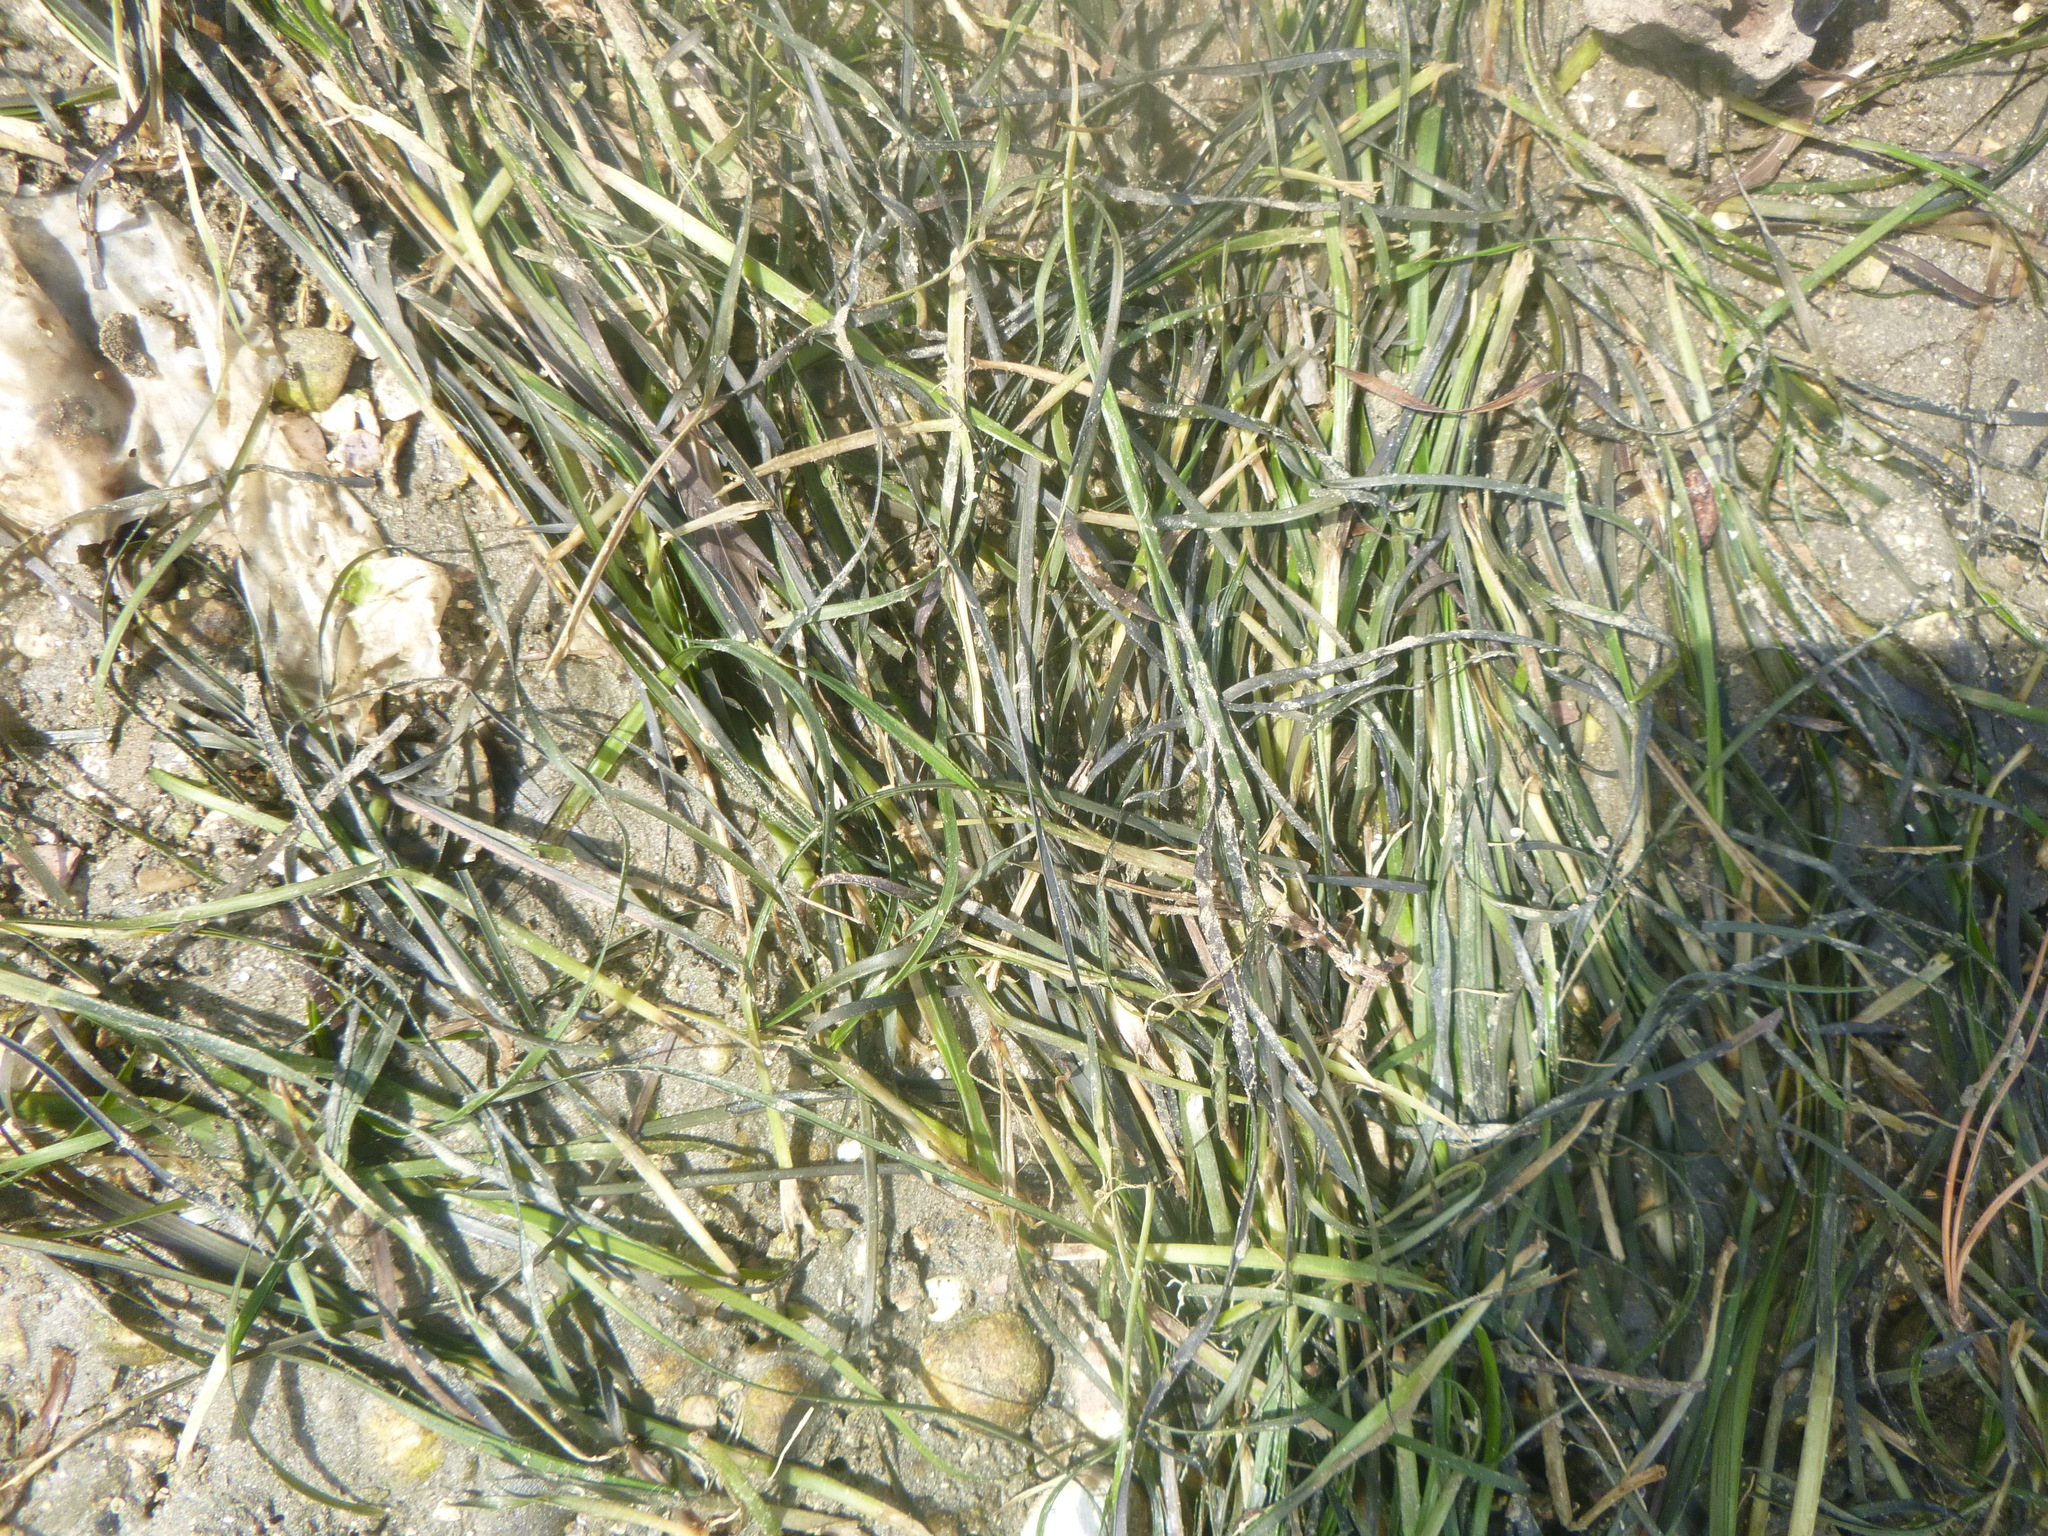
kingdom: Plantae
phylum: Tracheophyta
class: Liliopsida
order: Alismatales
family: Zosteraceae
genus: Zostera
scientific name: Zostera novazelandica
